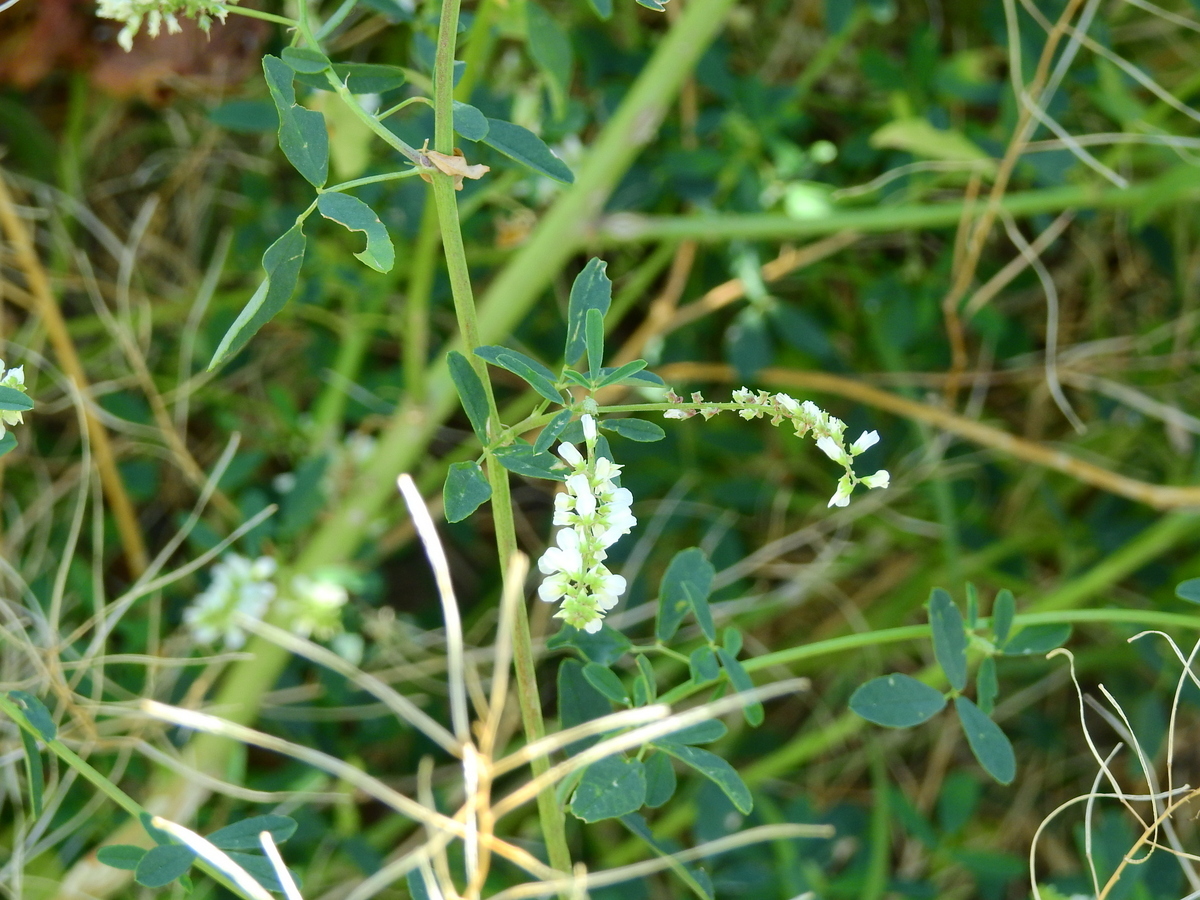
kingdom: Plantae
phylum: Tracheophyta
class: Magnoliopsida
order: Fabales
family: Fabaceae
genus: Melilotus
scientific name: Melilotus albus
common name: White melilot
